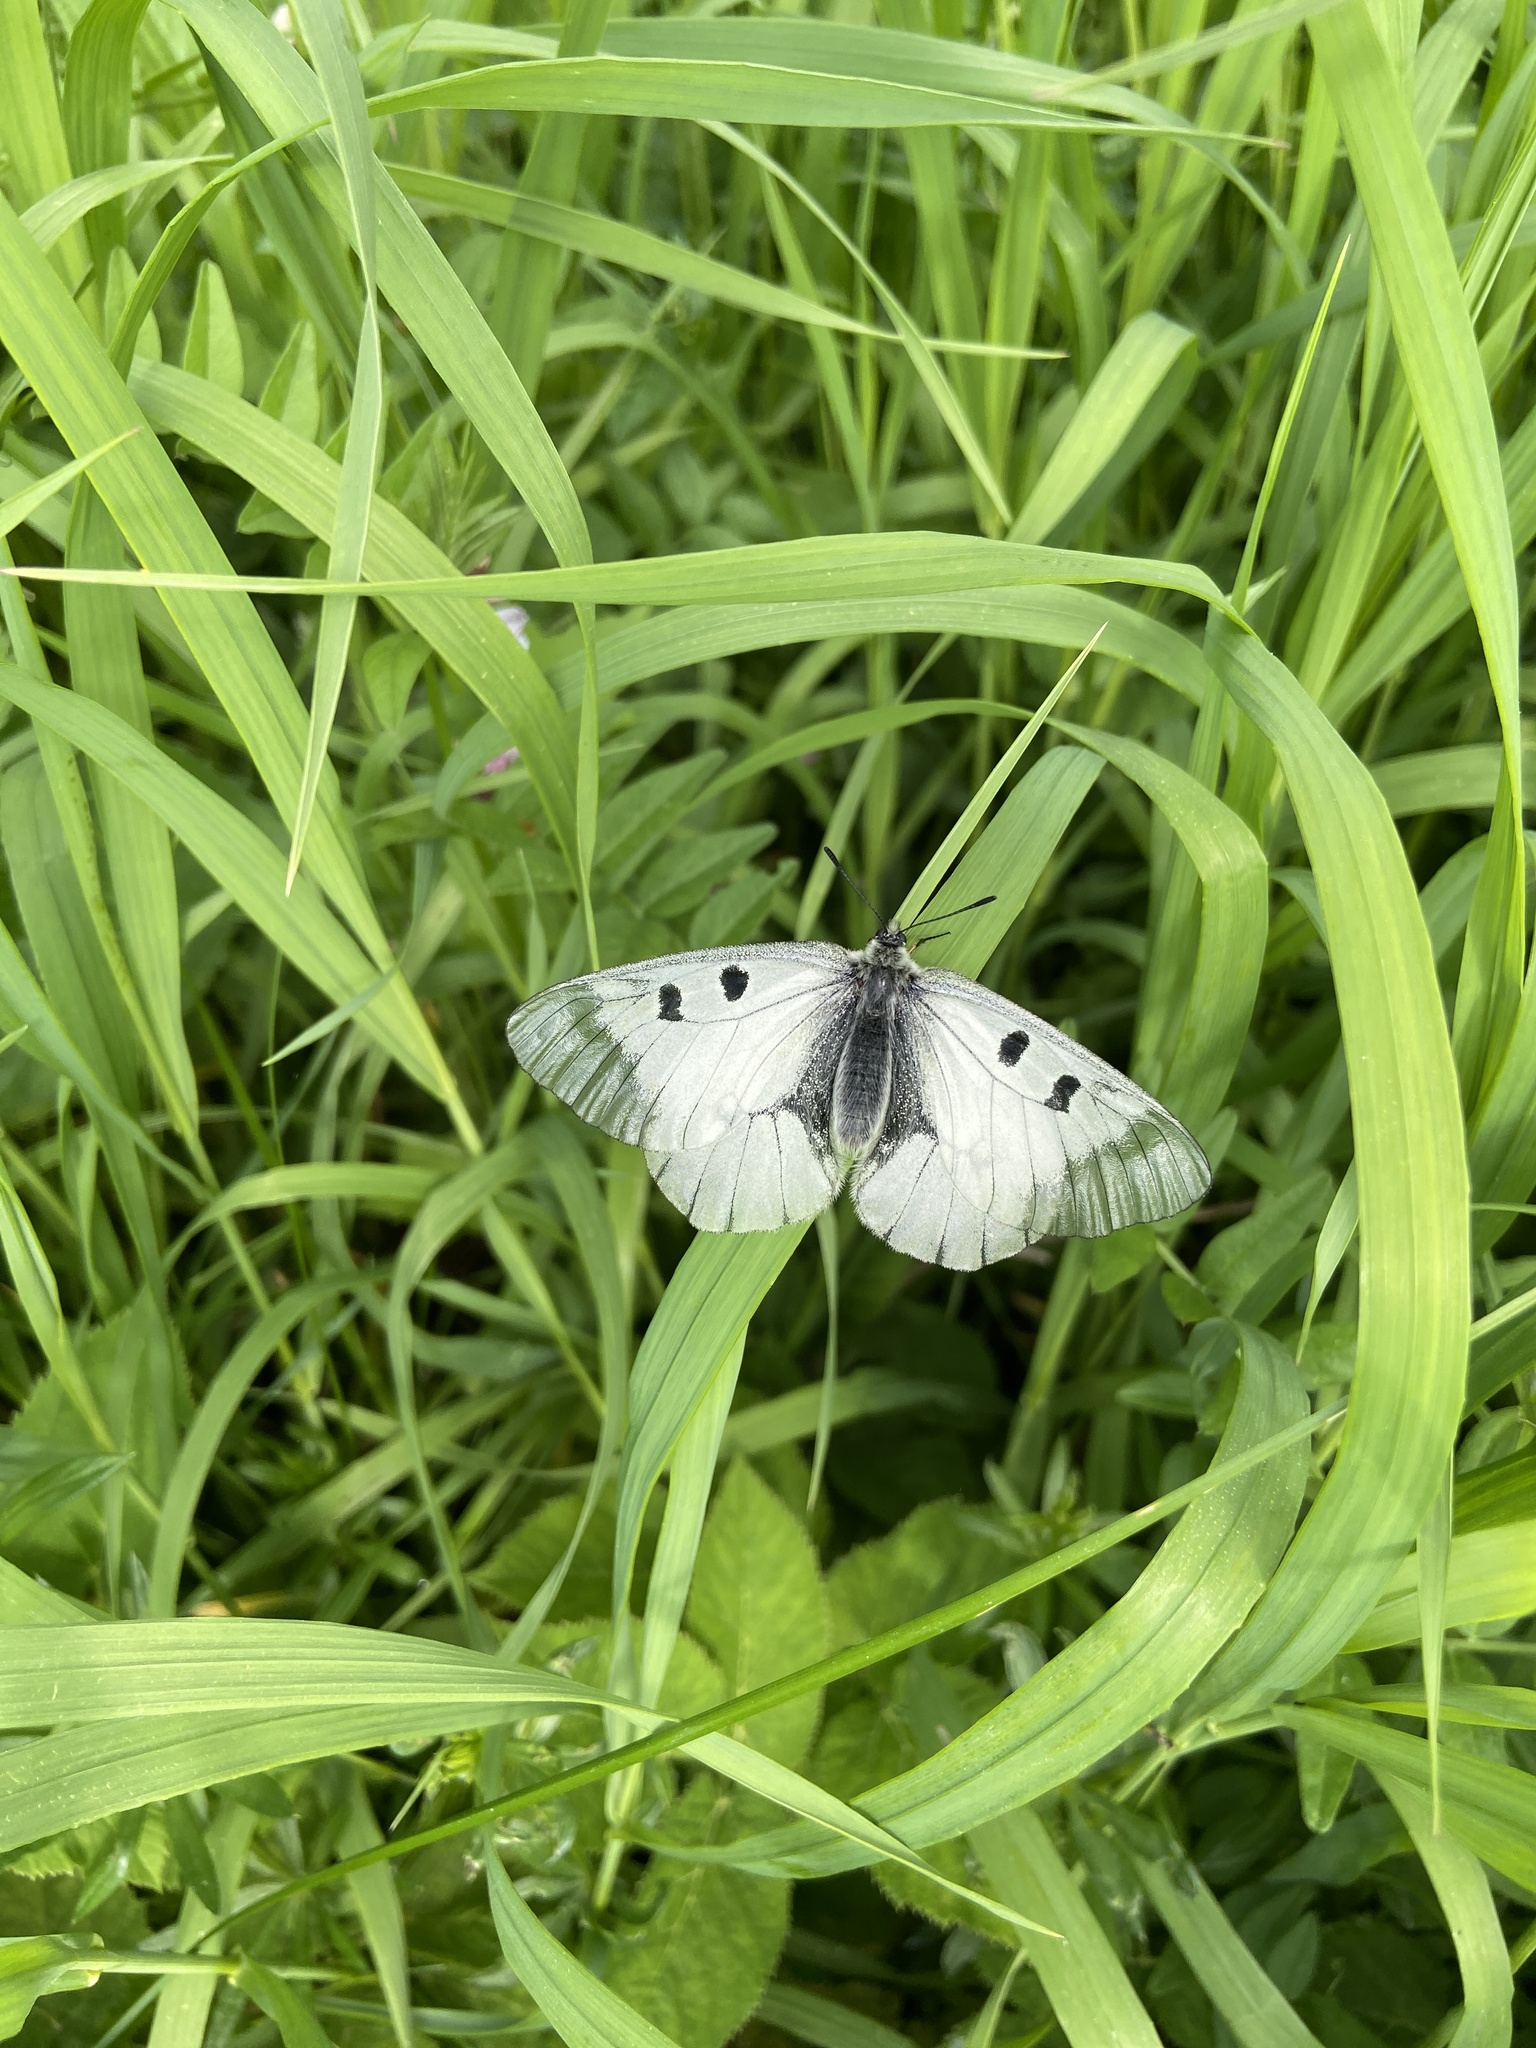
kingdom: Animalia
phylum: Arthropoda
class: Insecta
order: Lepidoptera
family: Papilionidae
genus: Parnassius
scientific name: Parnassius mnemosyne
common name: Clouded apollo
